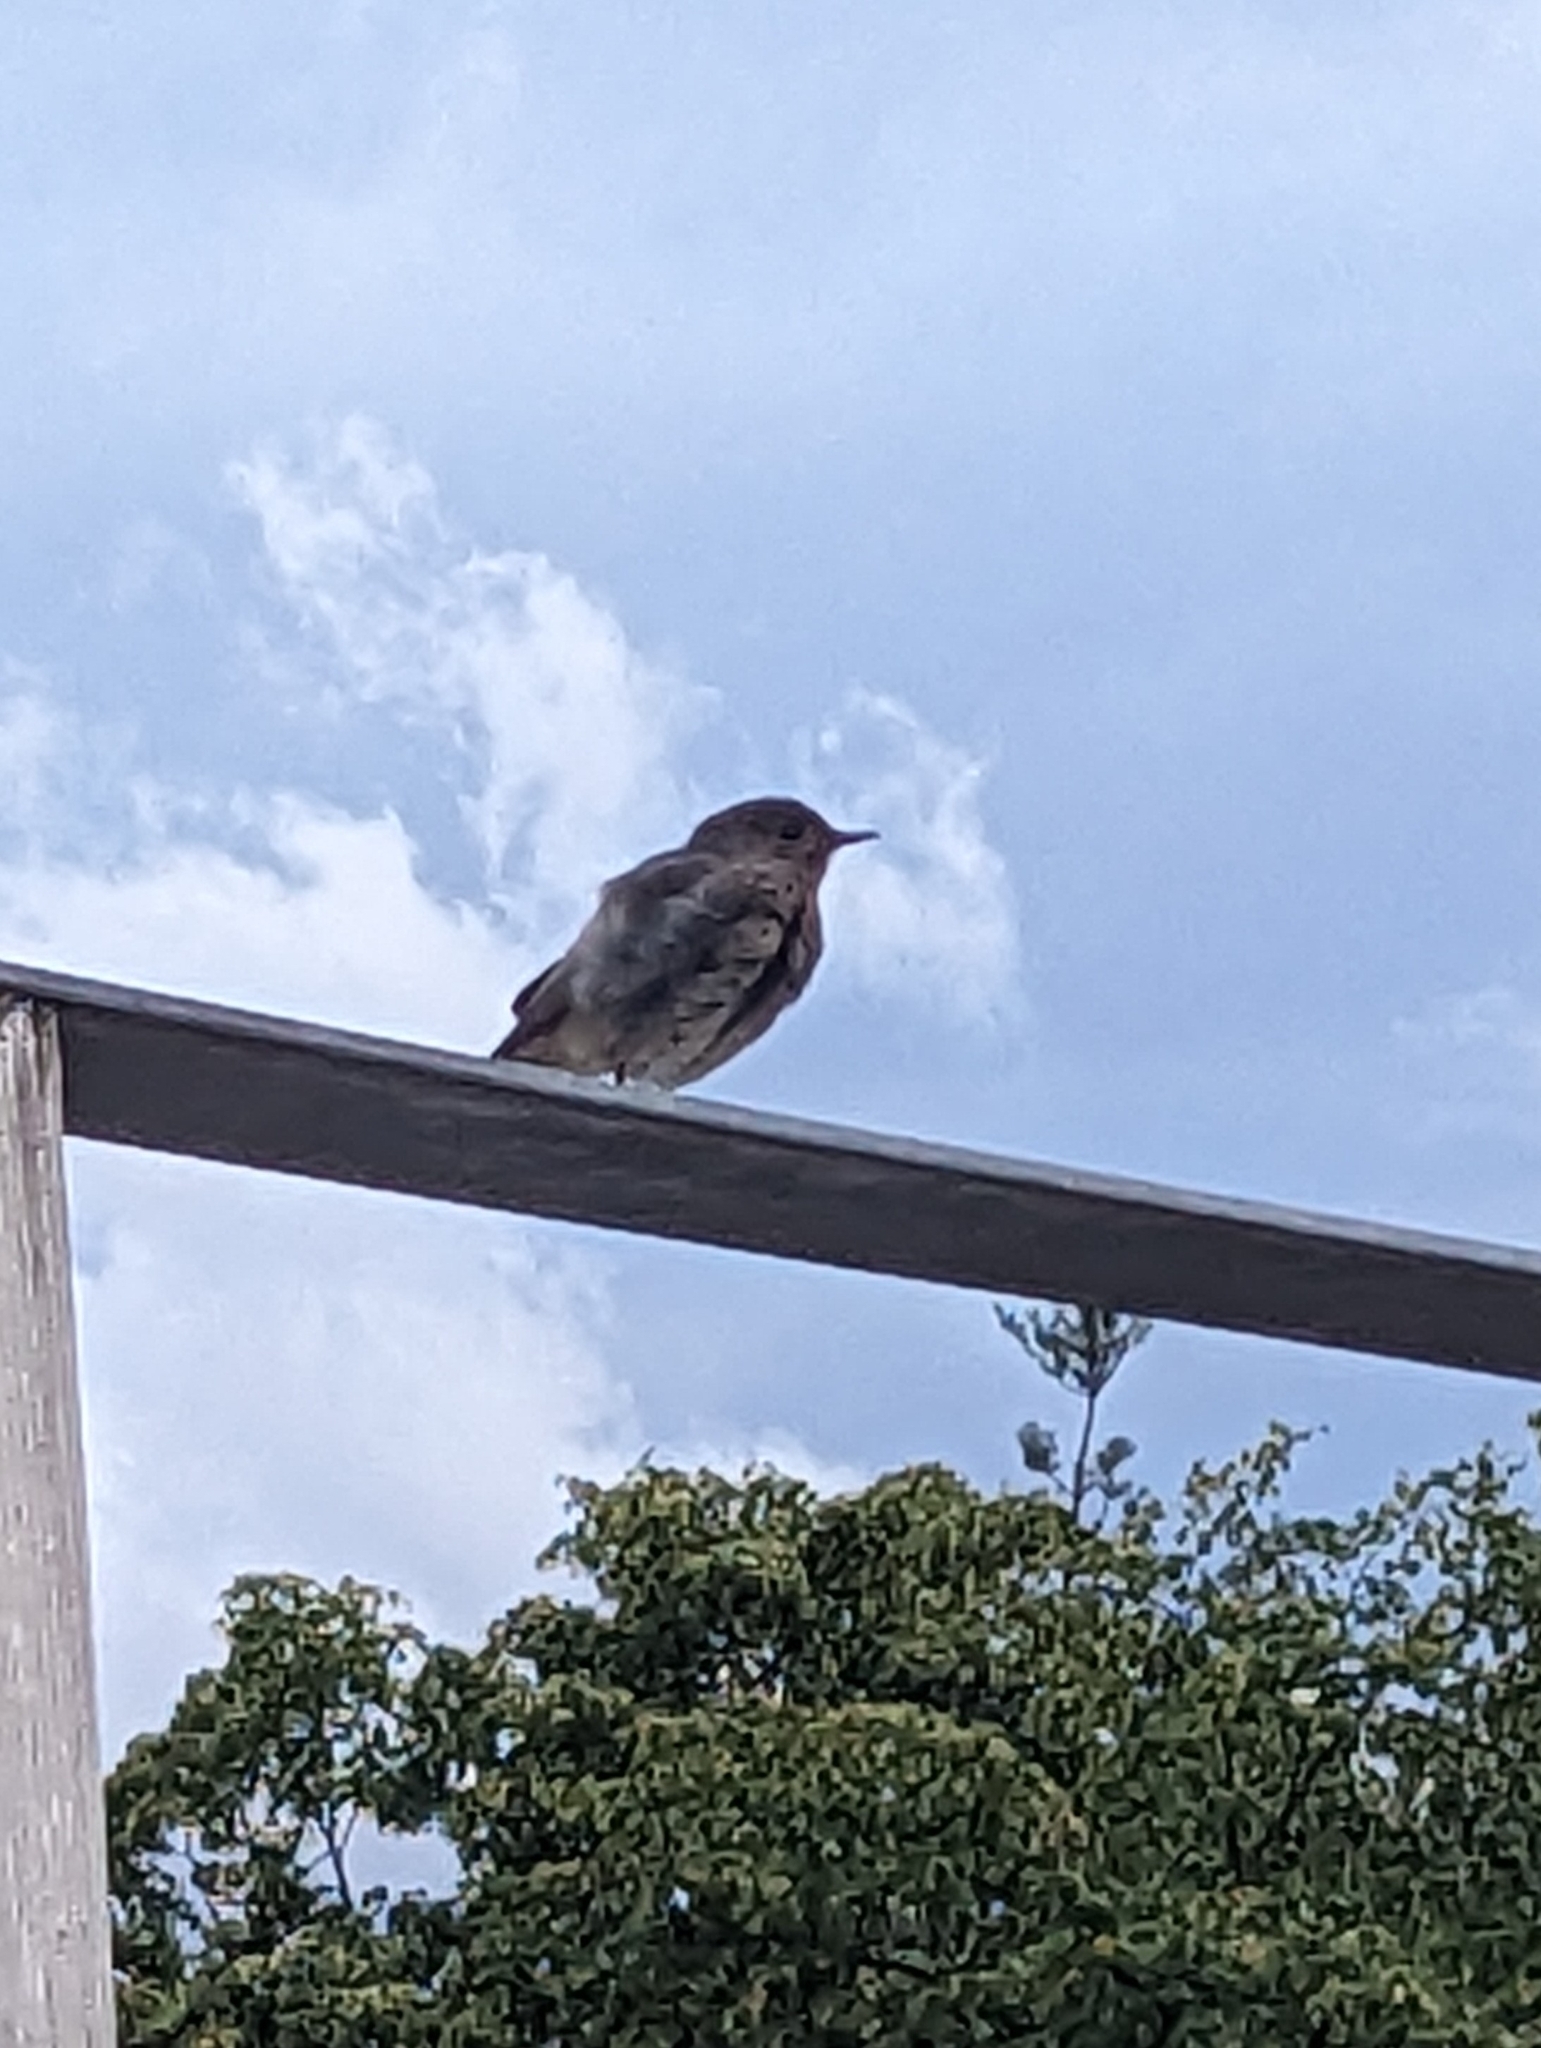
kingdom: Animalia
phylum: Chordata
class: Aves
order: Passeriformes
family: Muscicapidae
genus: Phoenicurus
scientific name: Phoenicurus ochruros
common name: Black redstart
